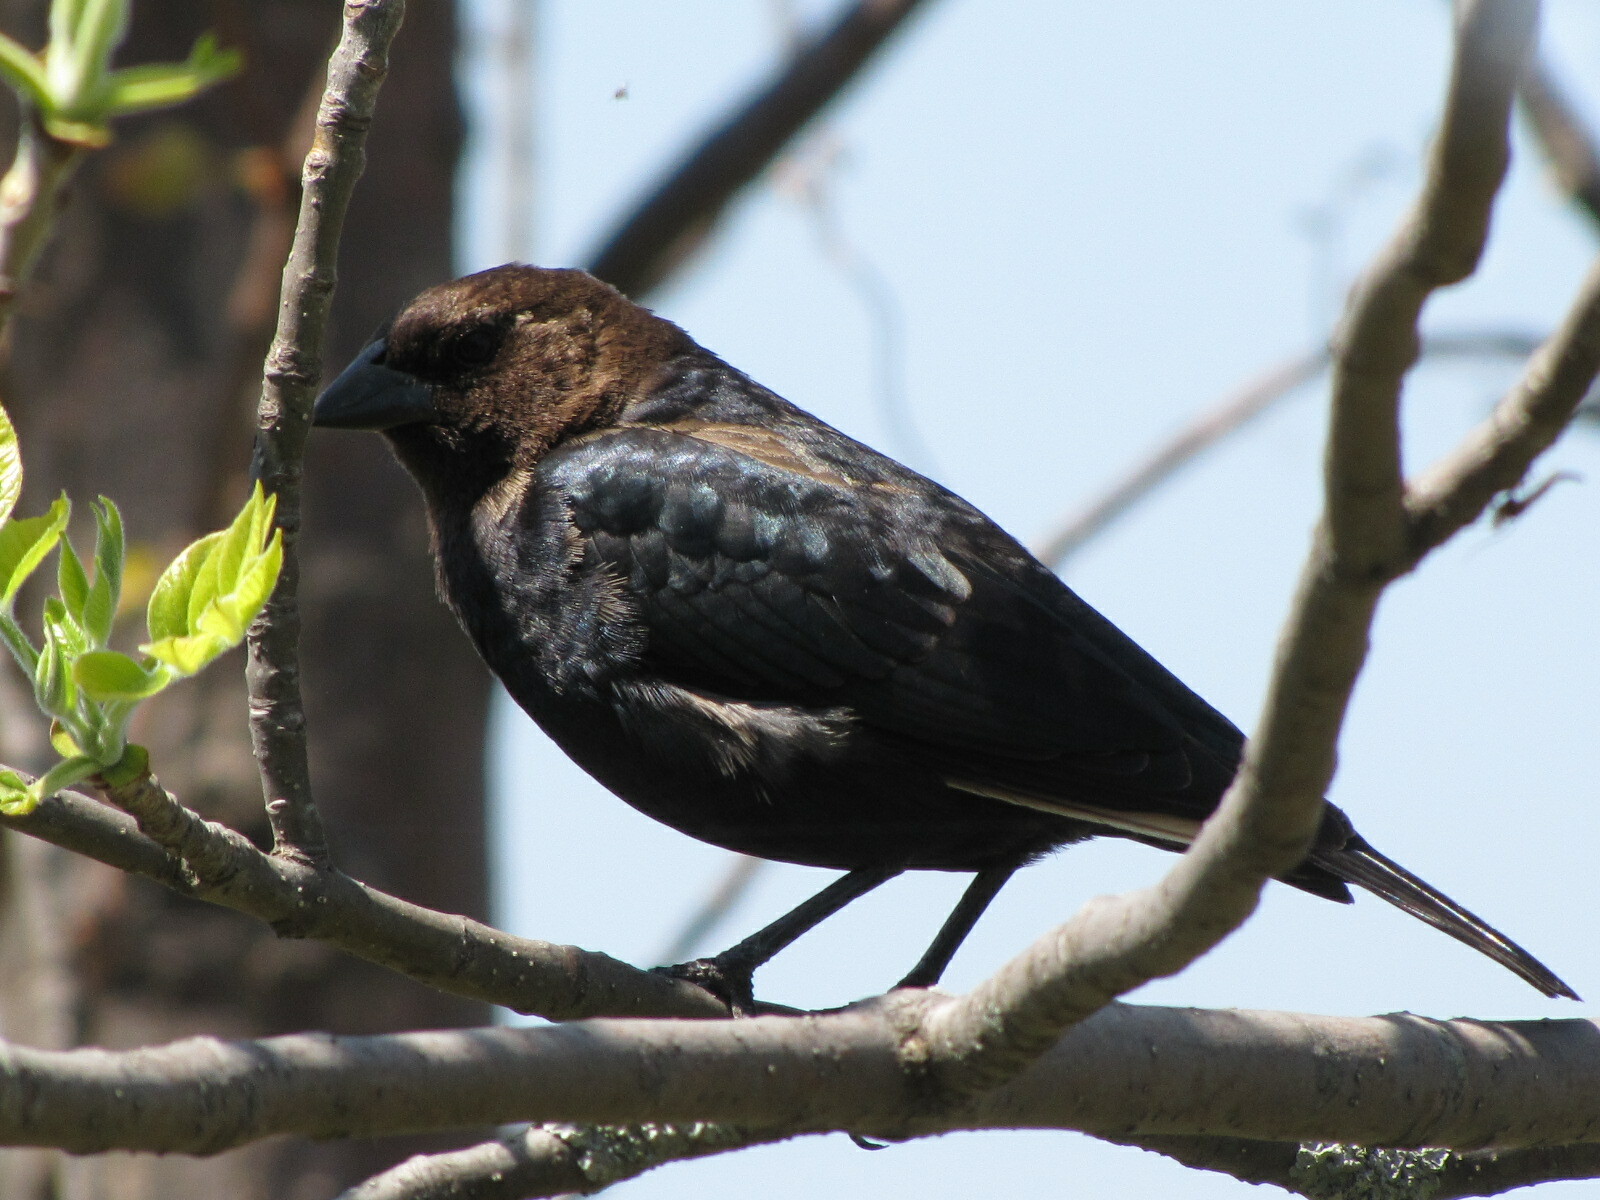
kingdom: Animalia
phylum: Chordata
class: Aves
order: Passeriformes
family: Icteridae
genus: Molothrus
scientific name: Molothrus ater
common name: Brown-headed cowbird
